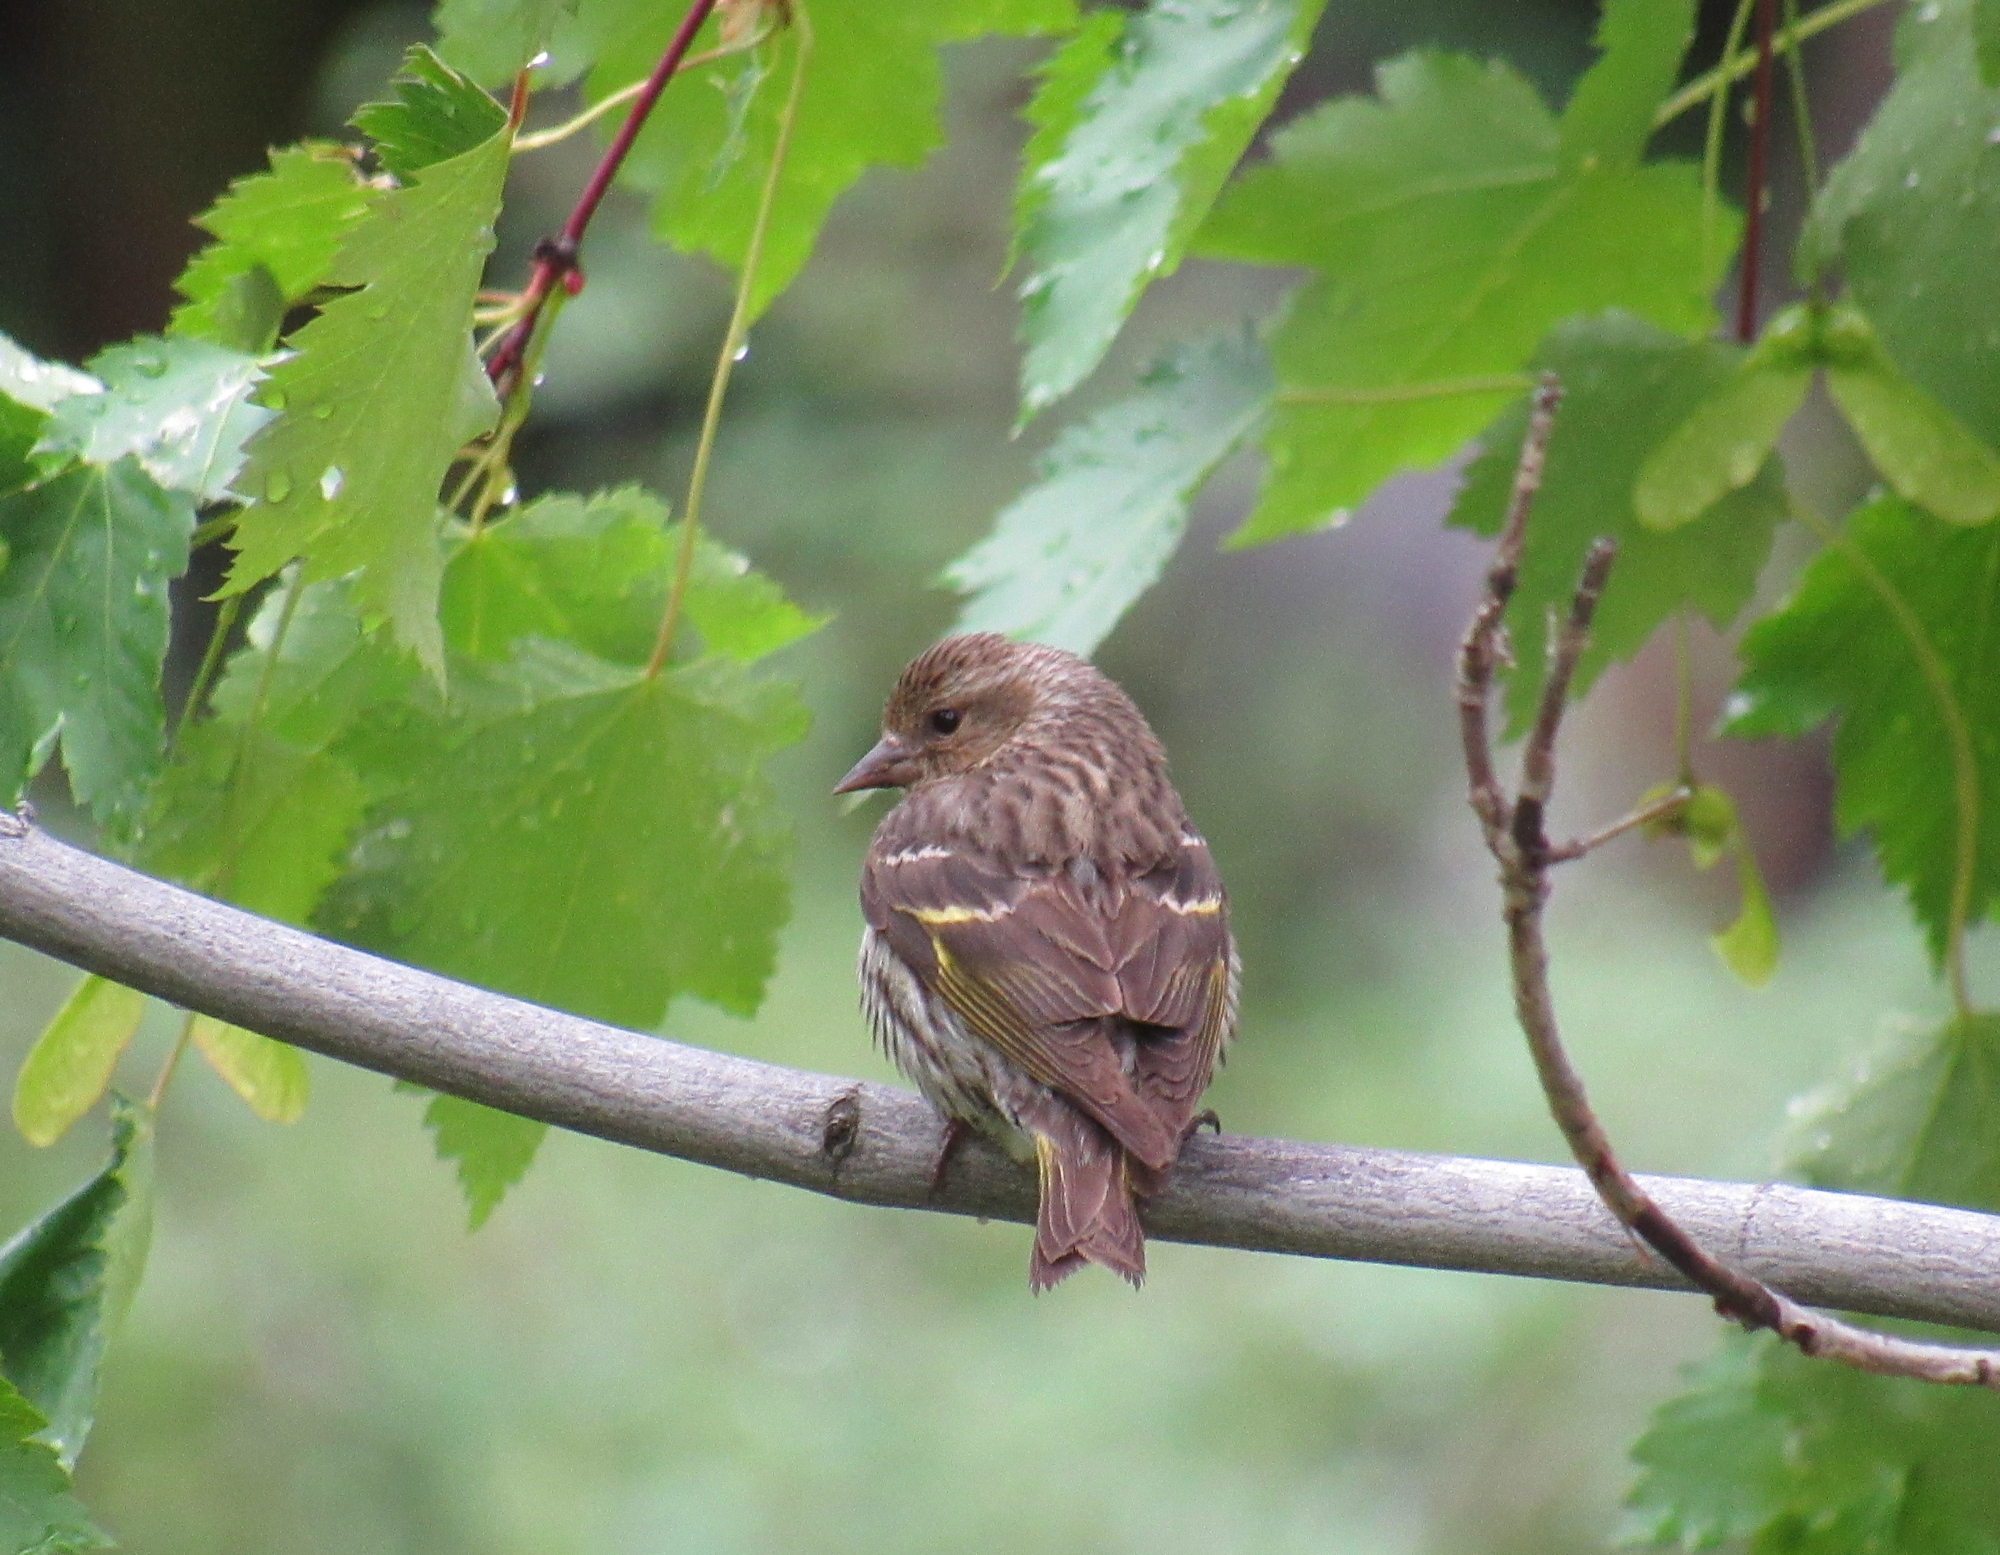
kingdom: Animalia
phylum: Chordata
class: Aves
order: Passeriformes
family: Fringillidae
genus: Spinus
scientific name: Spinus pinus
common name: Pine siskin
